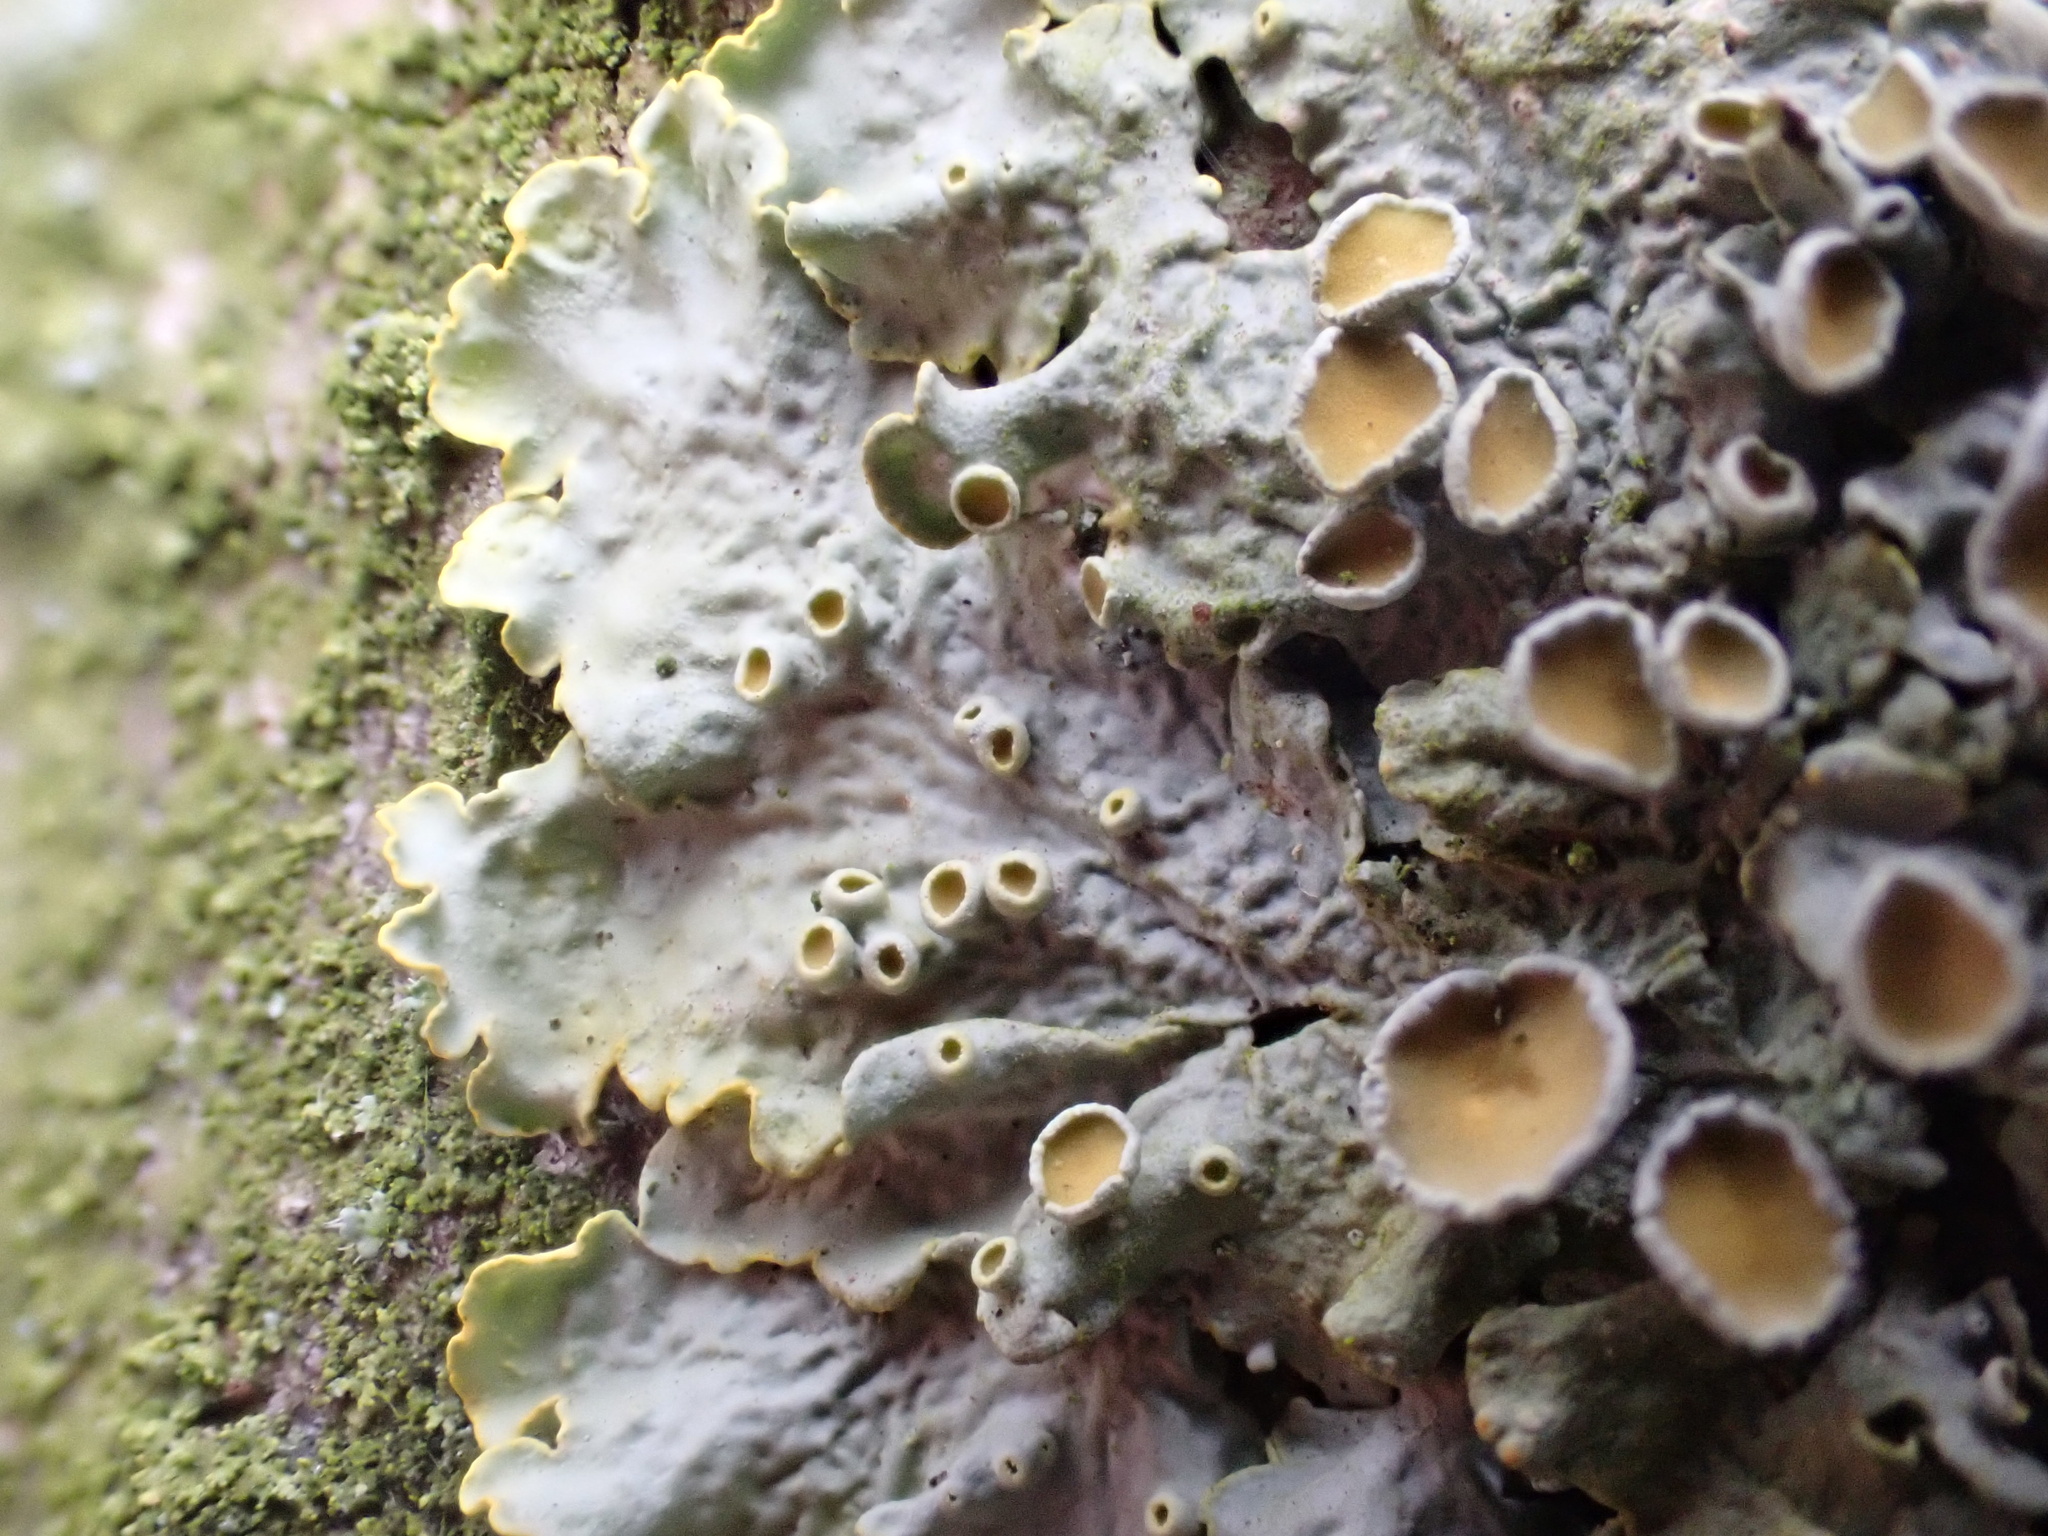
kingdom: Fungi
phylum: Ascomycota
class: Lecanoromycetes
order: Teloschistales
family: Teloschistaceae
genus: Xanthoria
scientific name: Xanthoria parietina
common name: Common orange lichen
